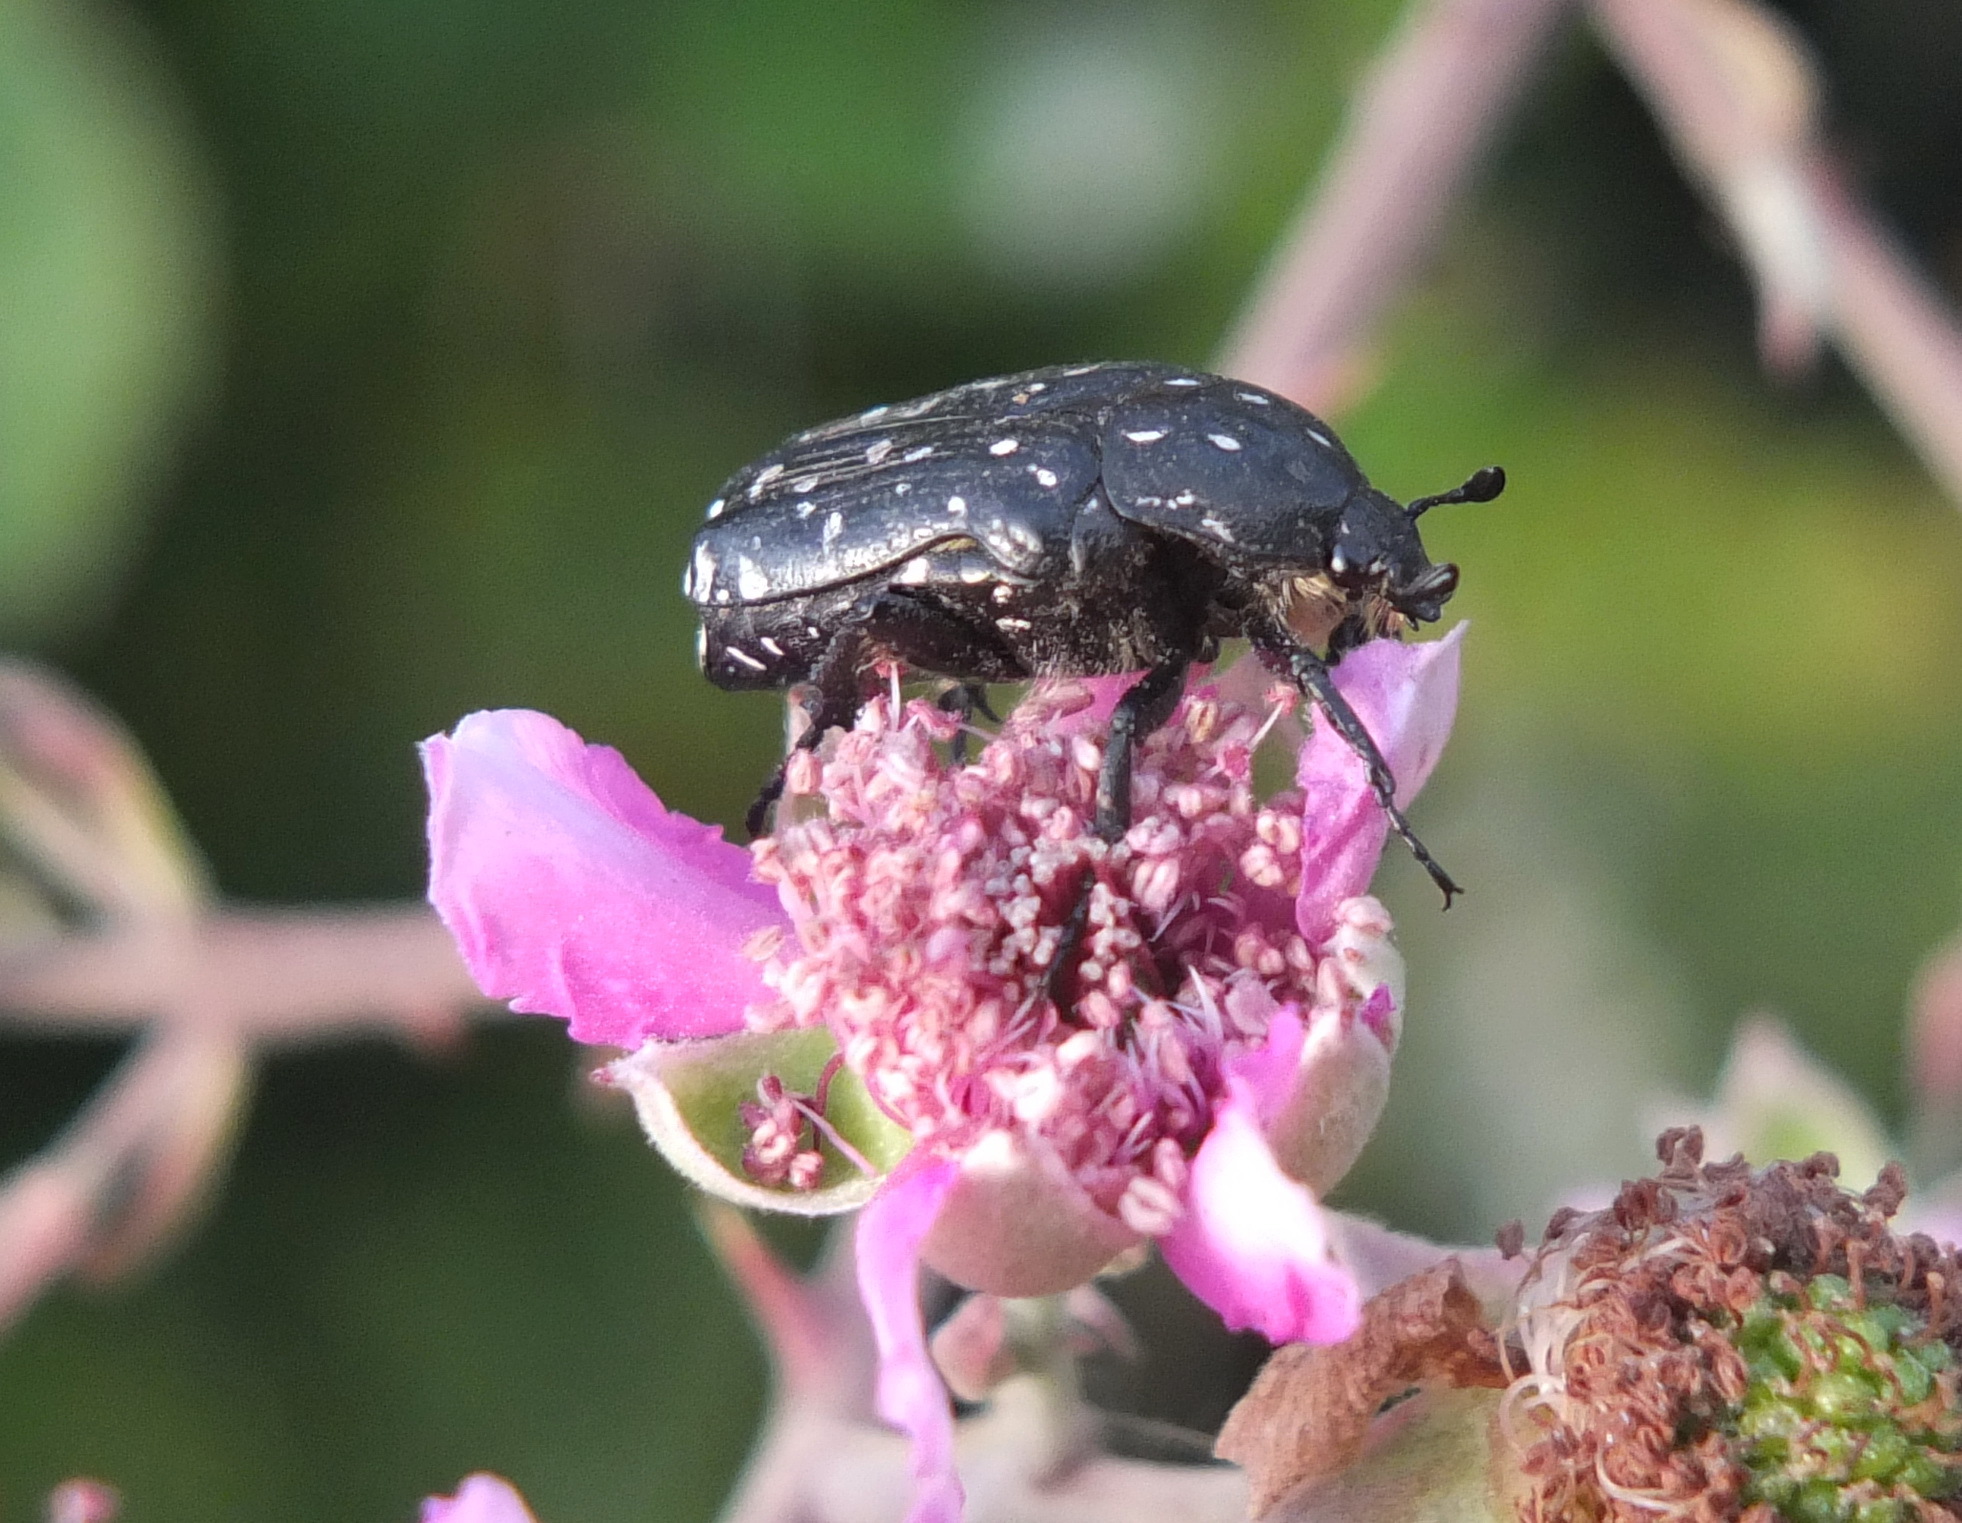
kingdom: Animalia
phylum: Arthropoda
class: Insecta
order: Coleoptera
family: Scarabaeidae
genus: Oxythyrea
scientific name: Oxythyrea funesta
